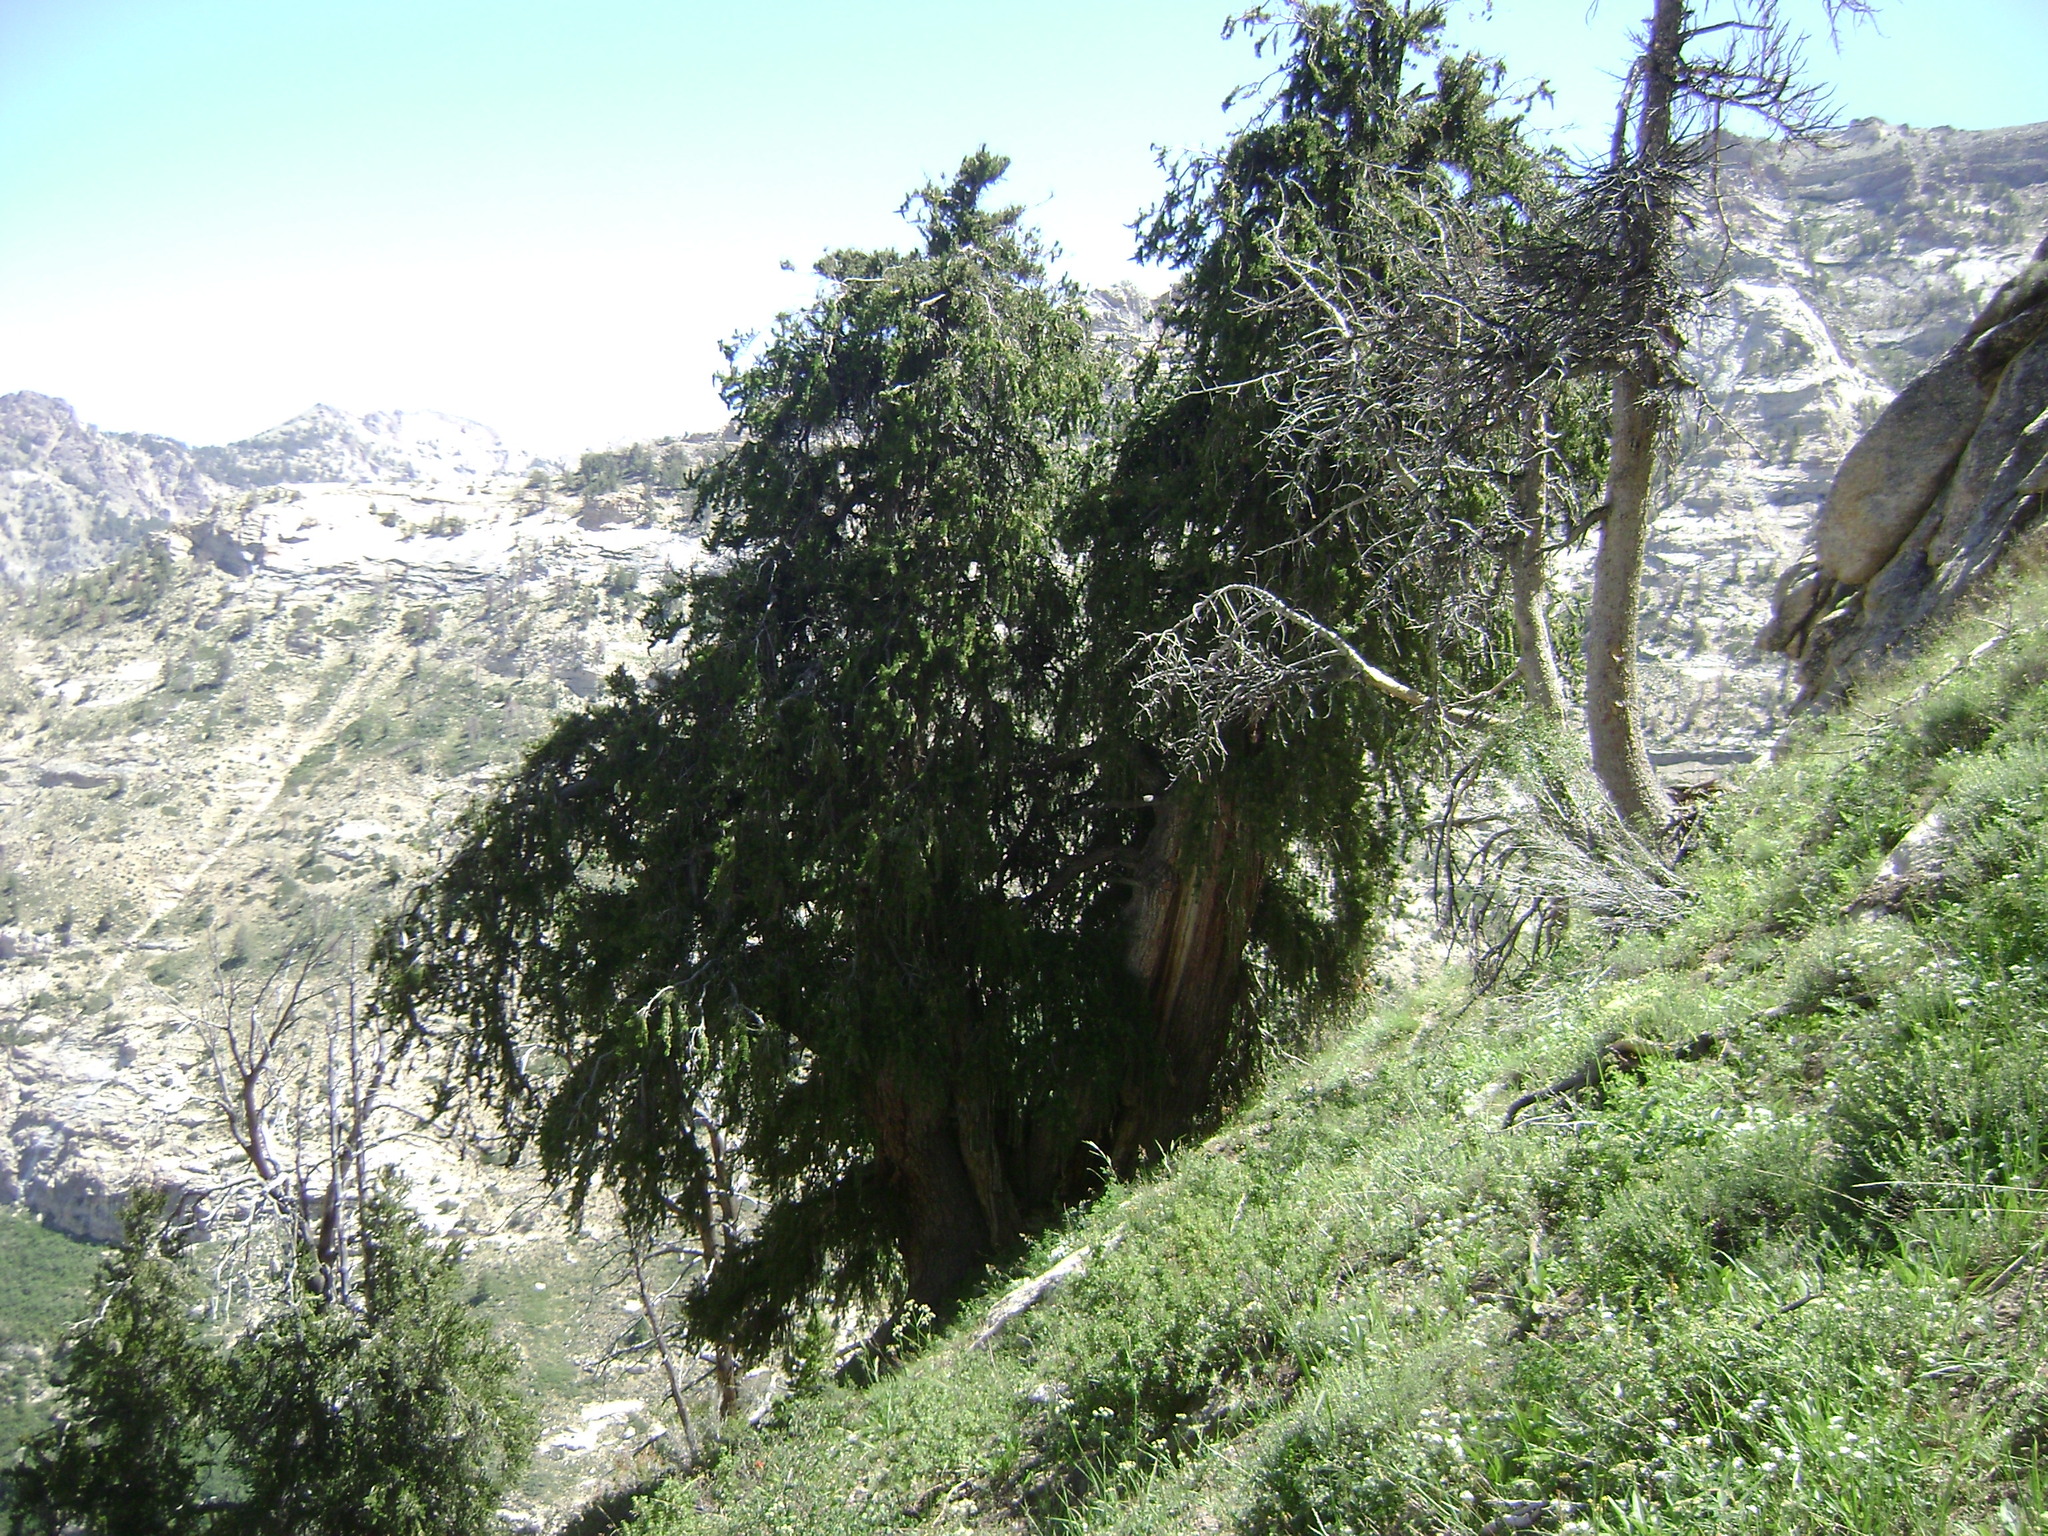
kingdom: Plantae
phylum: Tracheophyta
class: Pinopsida
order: Pinales
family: Pinaceae
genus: Pinus
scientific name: Pinus longaeva
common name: Intermountain bristlecone pine
